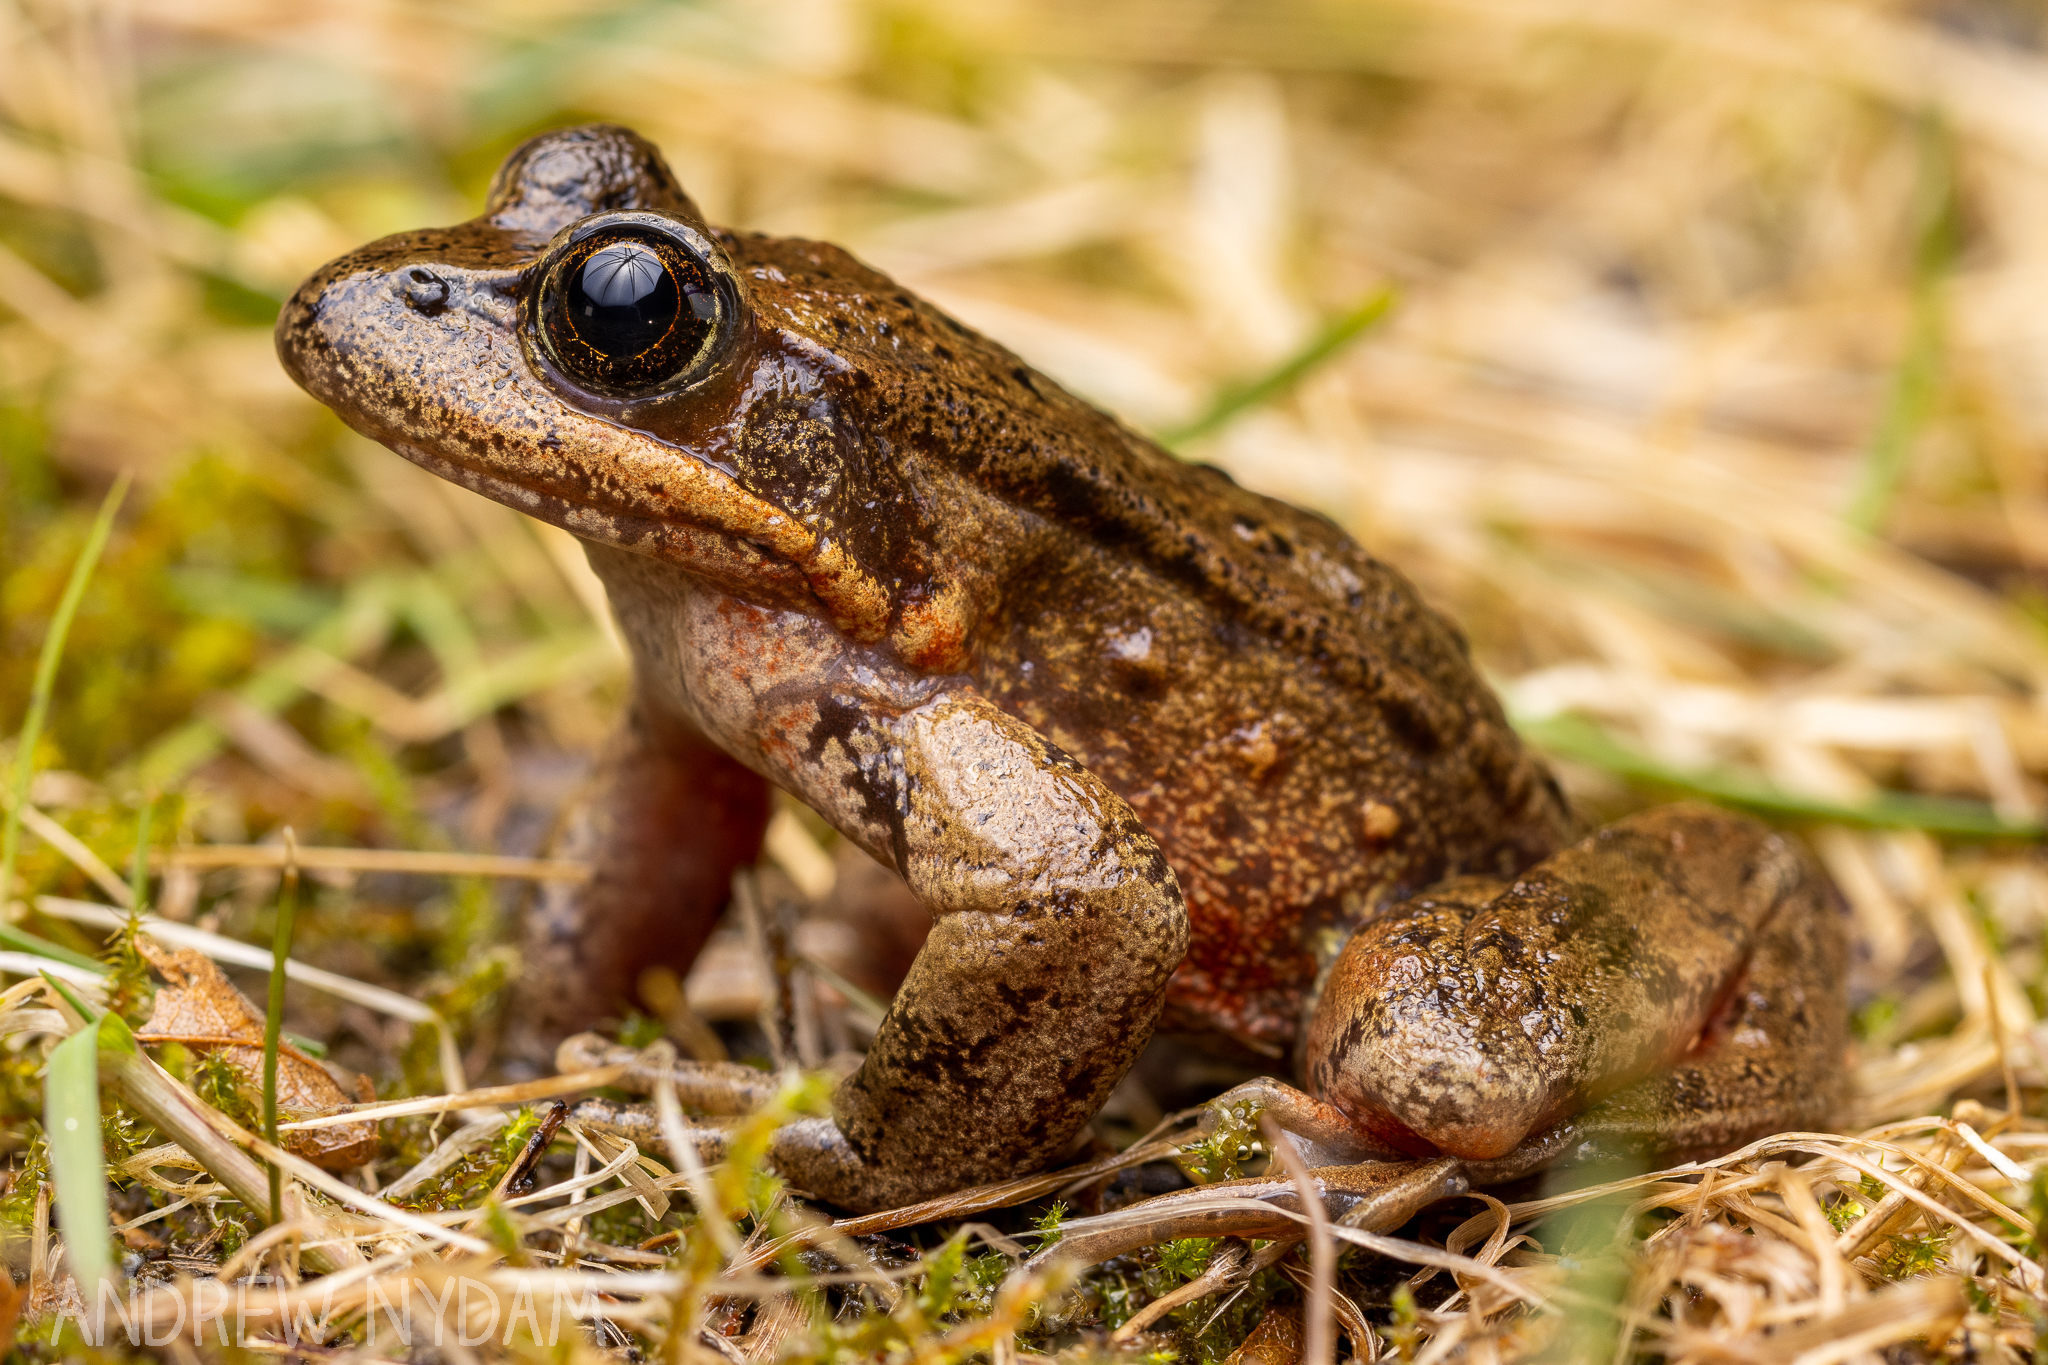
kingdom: Animalia
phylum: Chordata
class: Amphibia
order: Anura
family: Ranidae
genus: Rana
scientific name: Rana aurora
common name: Red-legged frog
